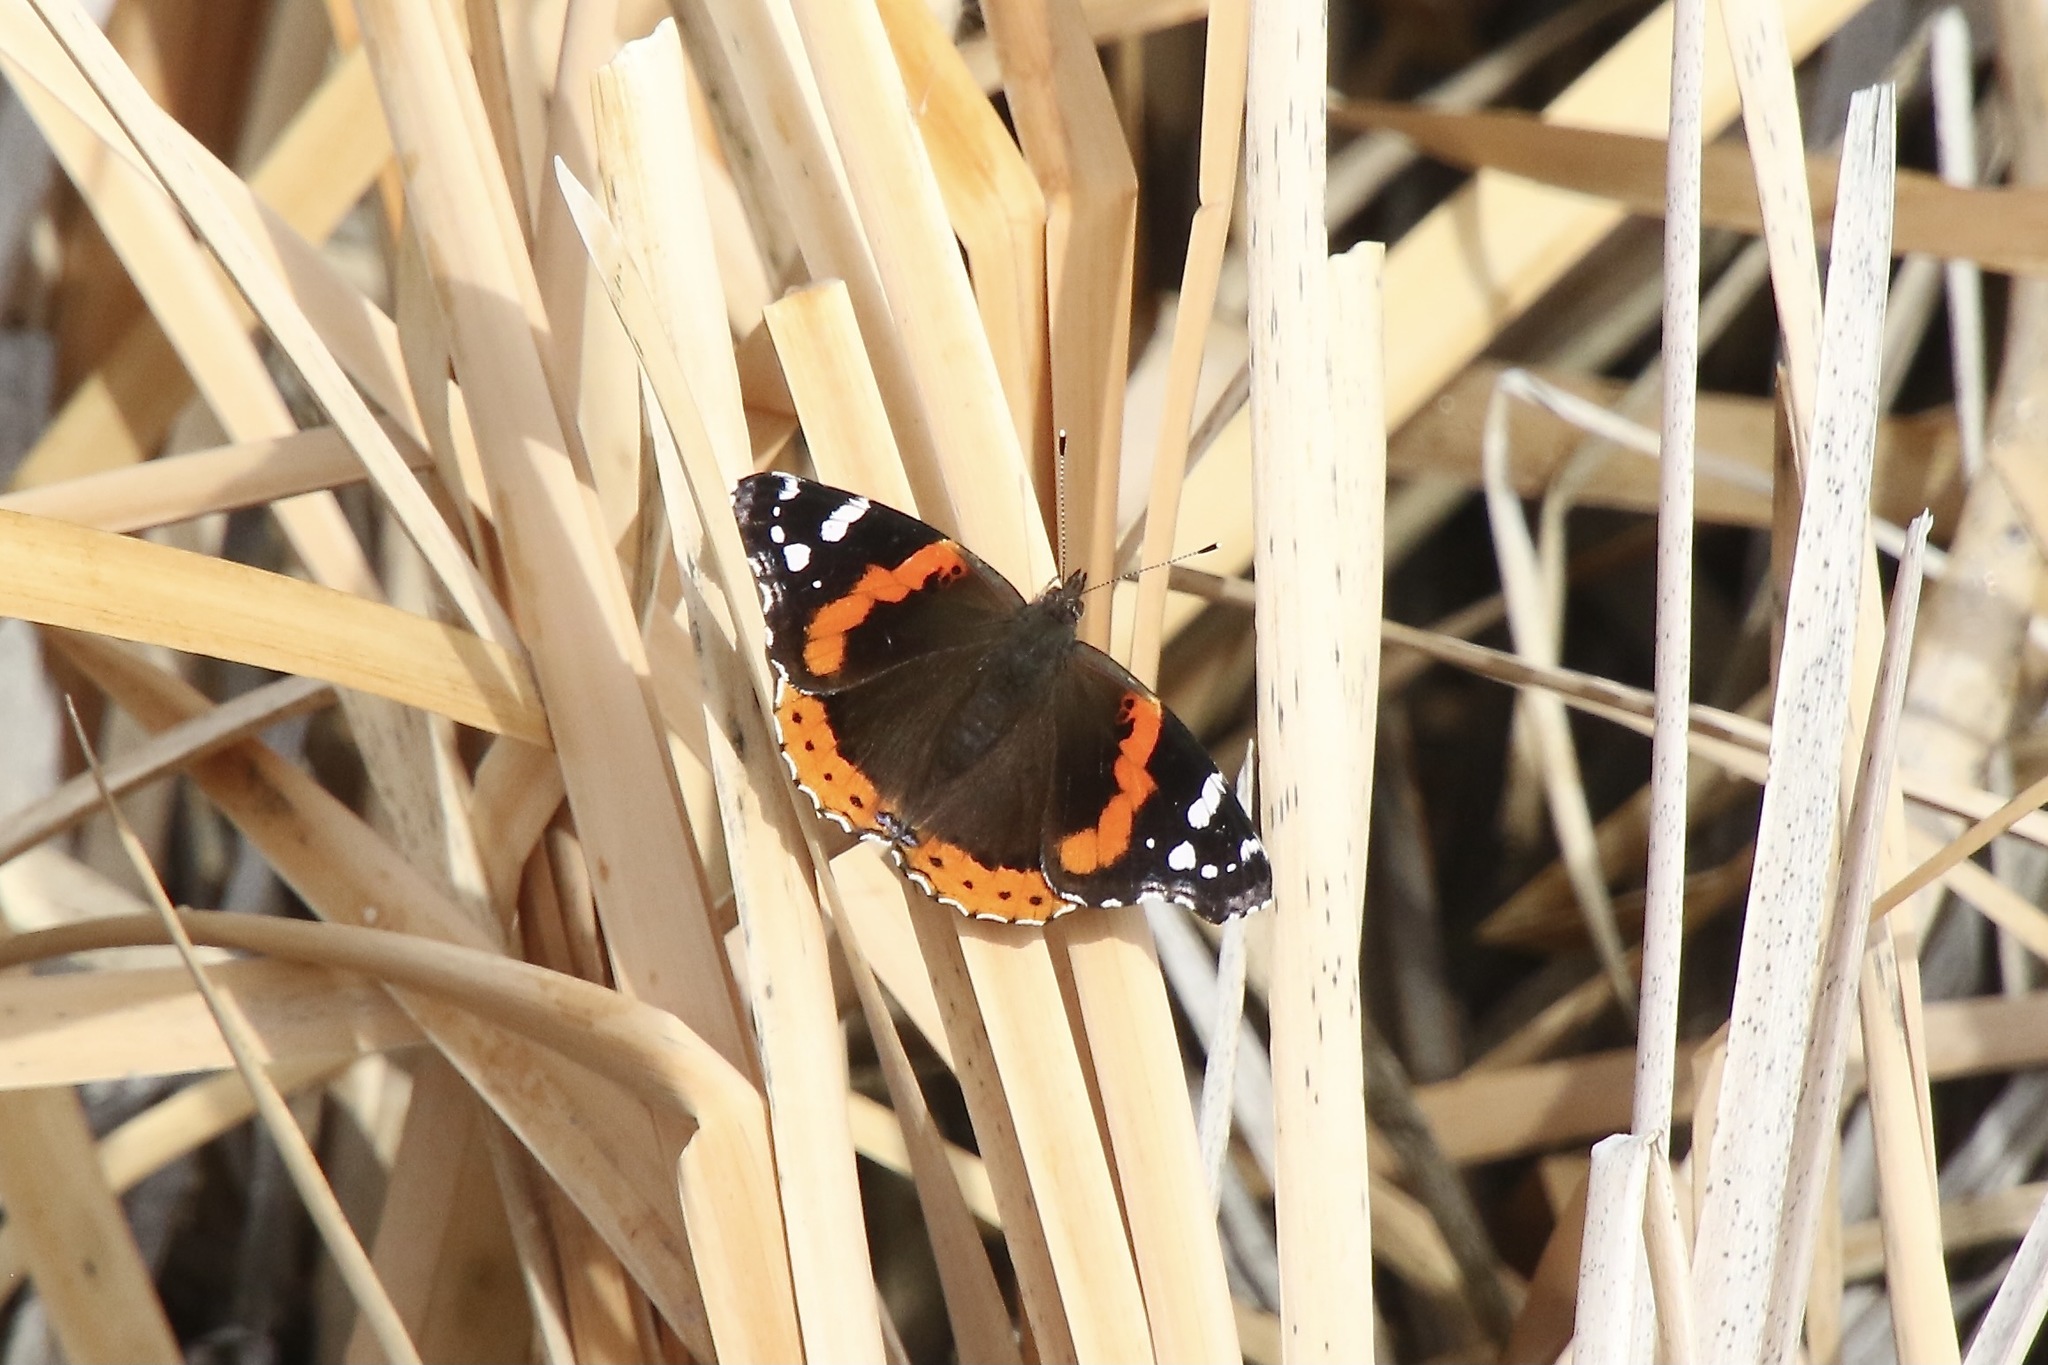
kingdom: Animalia
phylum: Arthropoda
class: Insecta
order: Lepidoptera
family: Nymphalidae
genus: Vanessa
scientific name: Vanessa atalanta
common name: Red admiral
